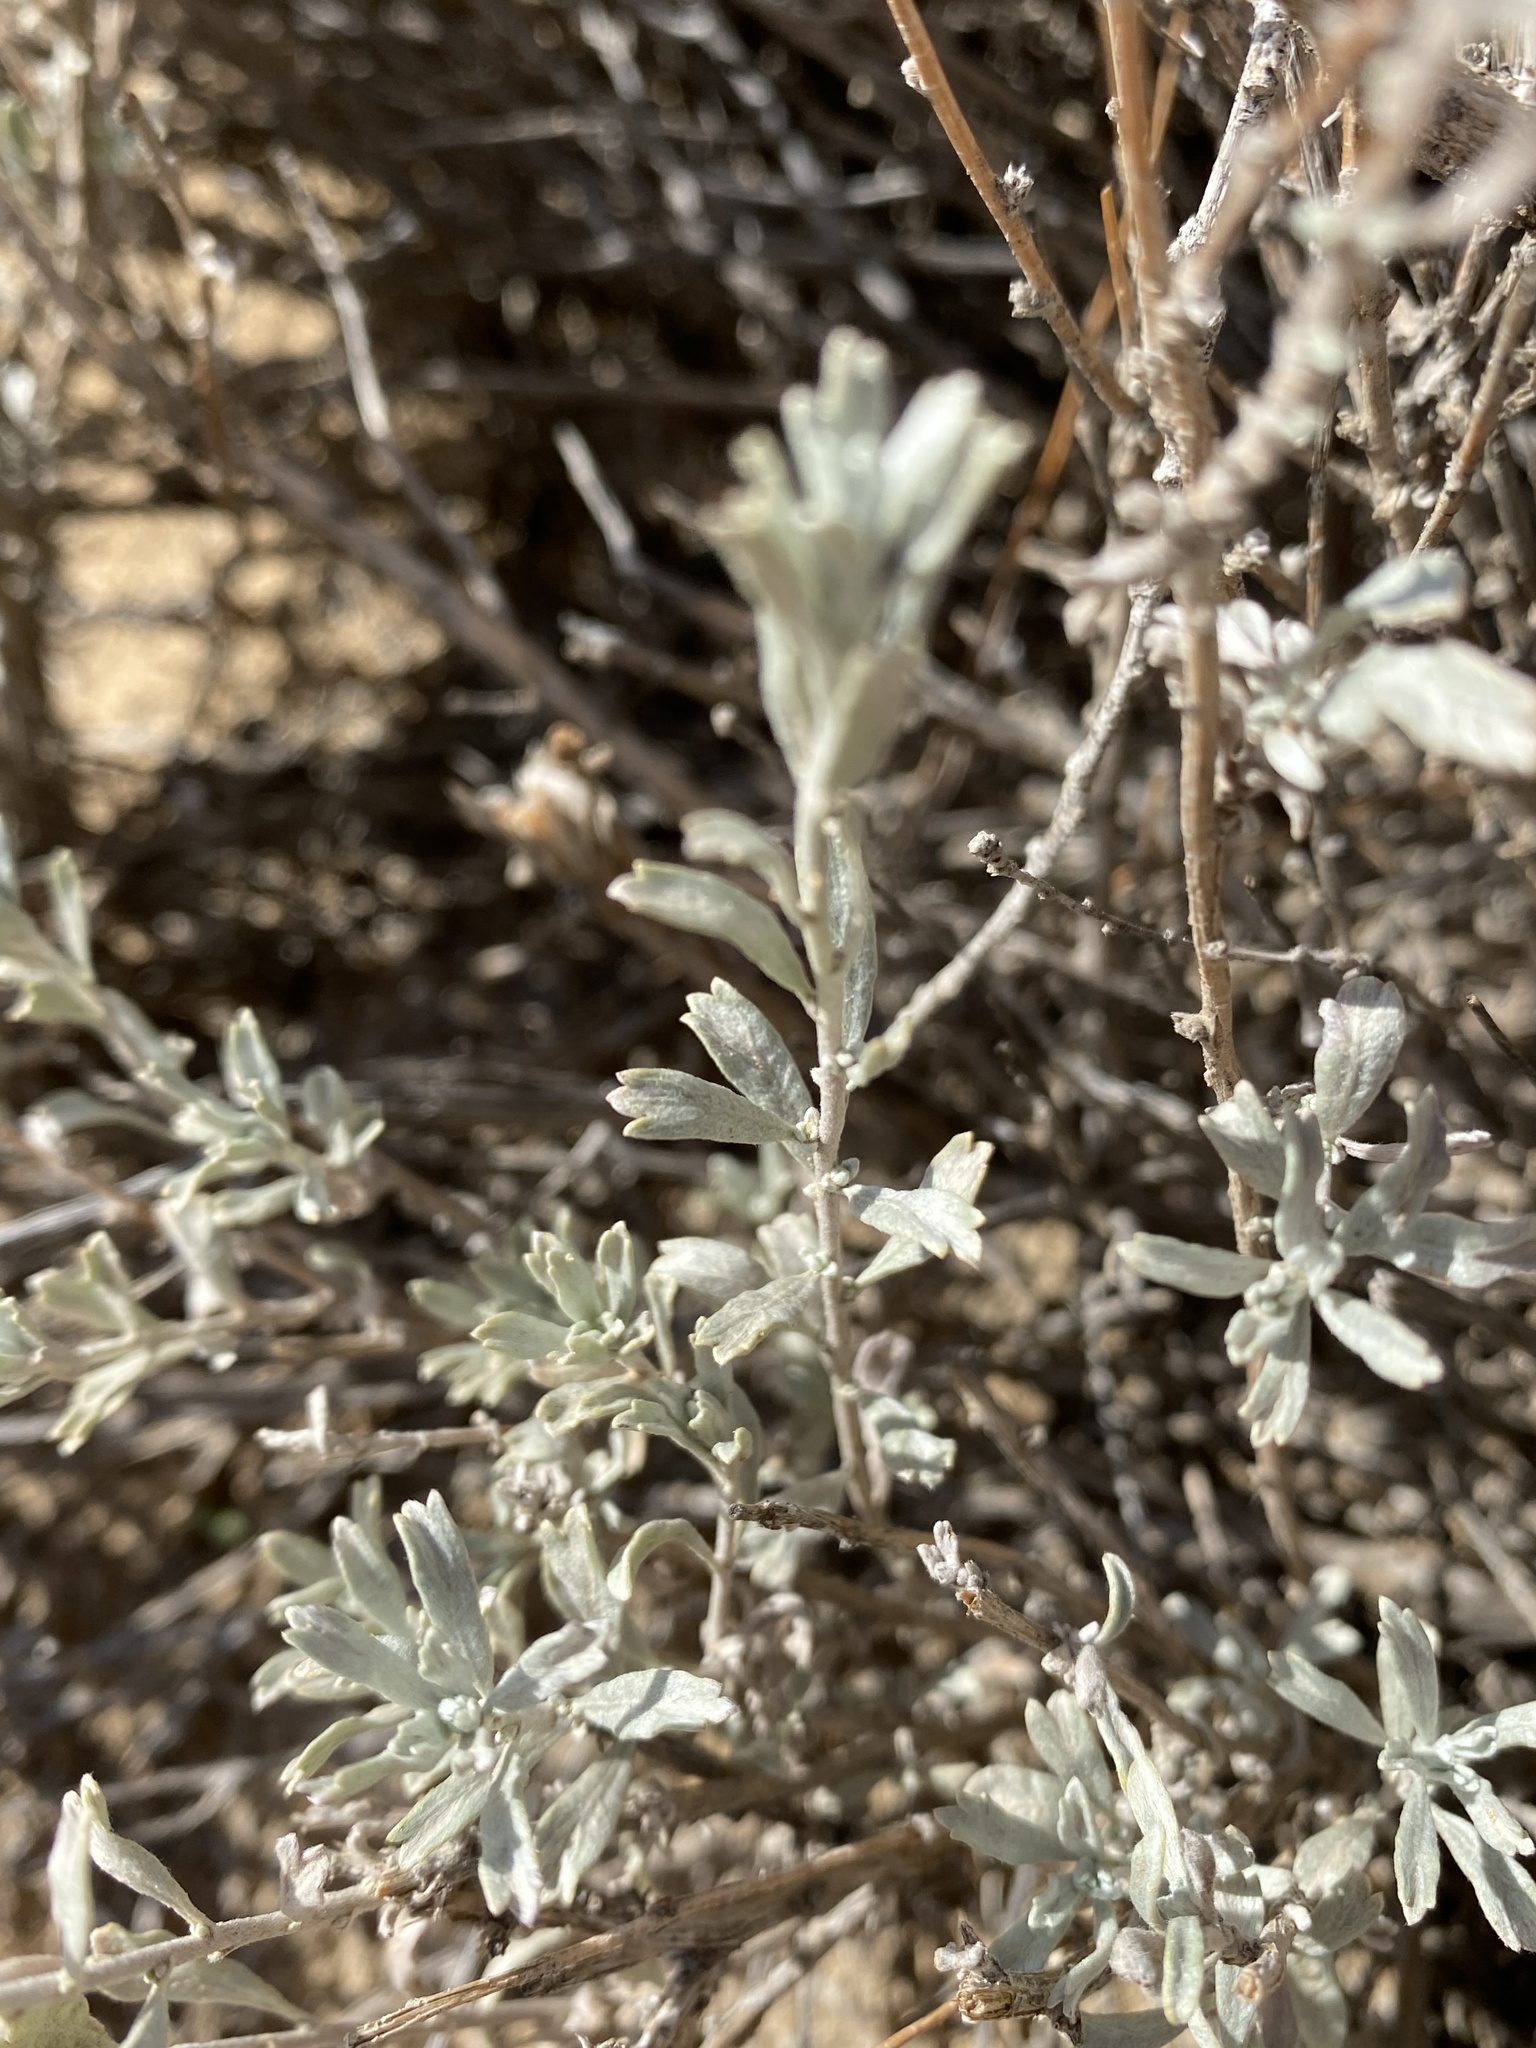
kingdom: Plantae
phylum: Tracheophyta
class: Magnoliopsida
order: Asterales
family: Asteraceae
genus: Artemisia
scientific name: Artemisia bigelovii
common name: Bigelow sagebrush
